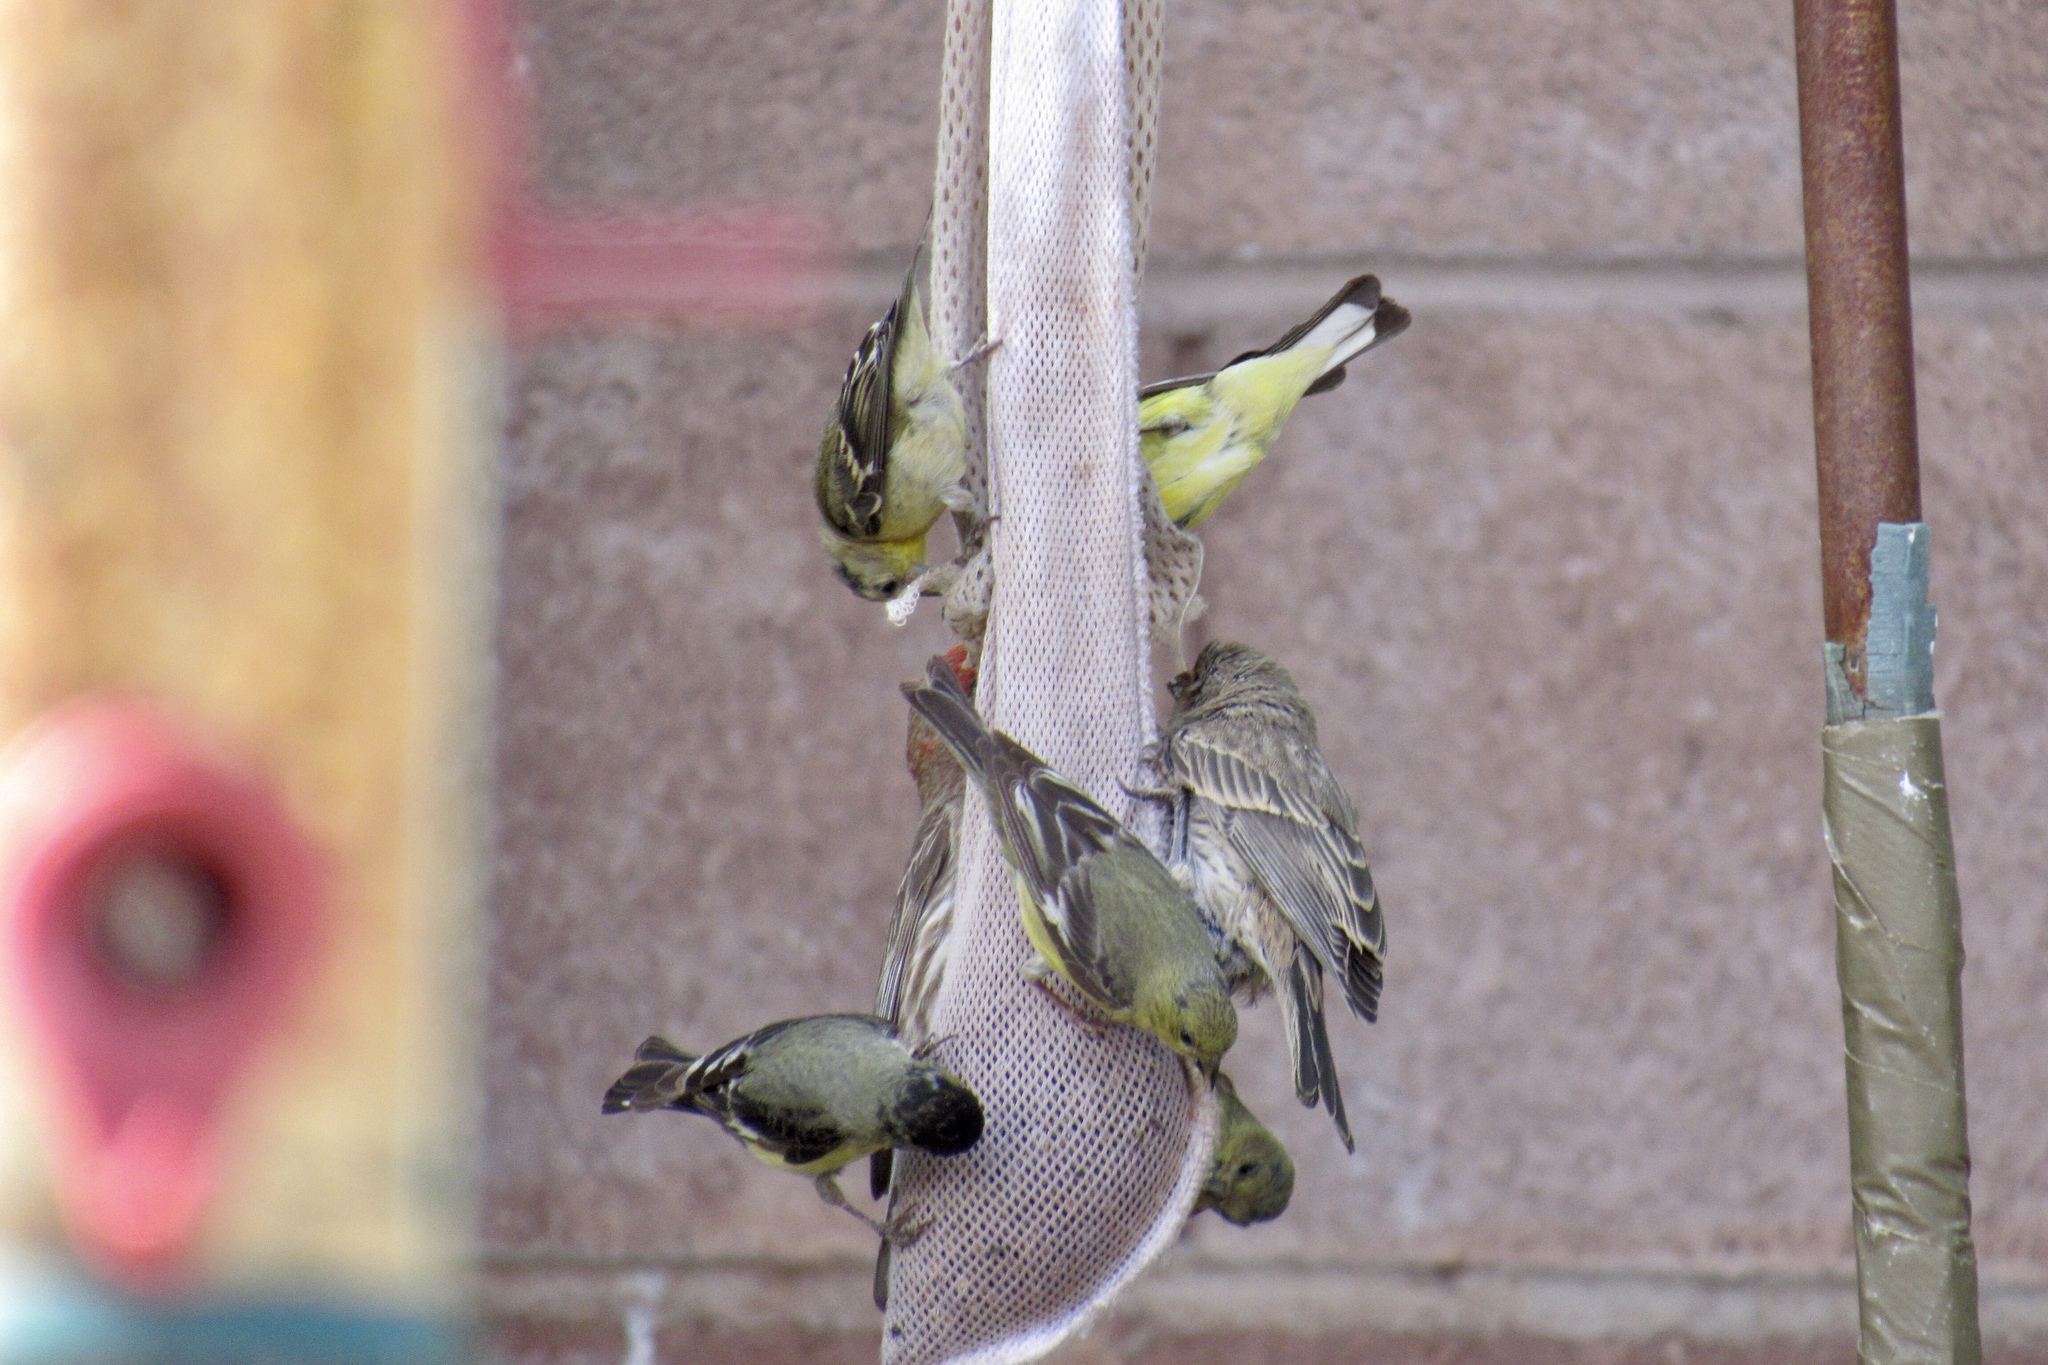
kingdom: Animalia
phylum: Chordata
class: Aves
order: Passeriformes
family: Fringillidae
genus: Spinus
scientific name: Spinus psaltria
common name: Lesser goldfinch
